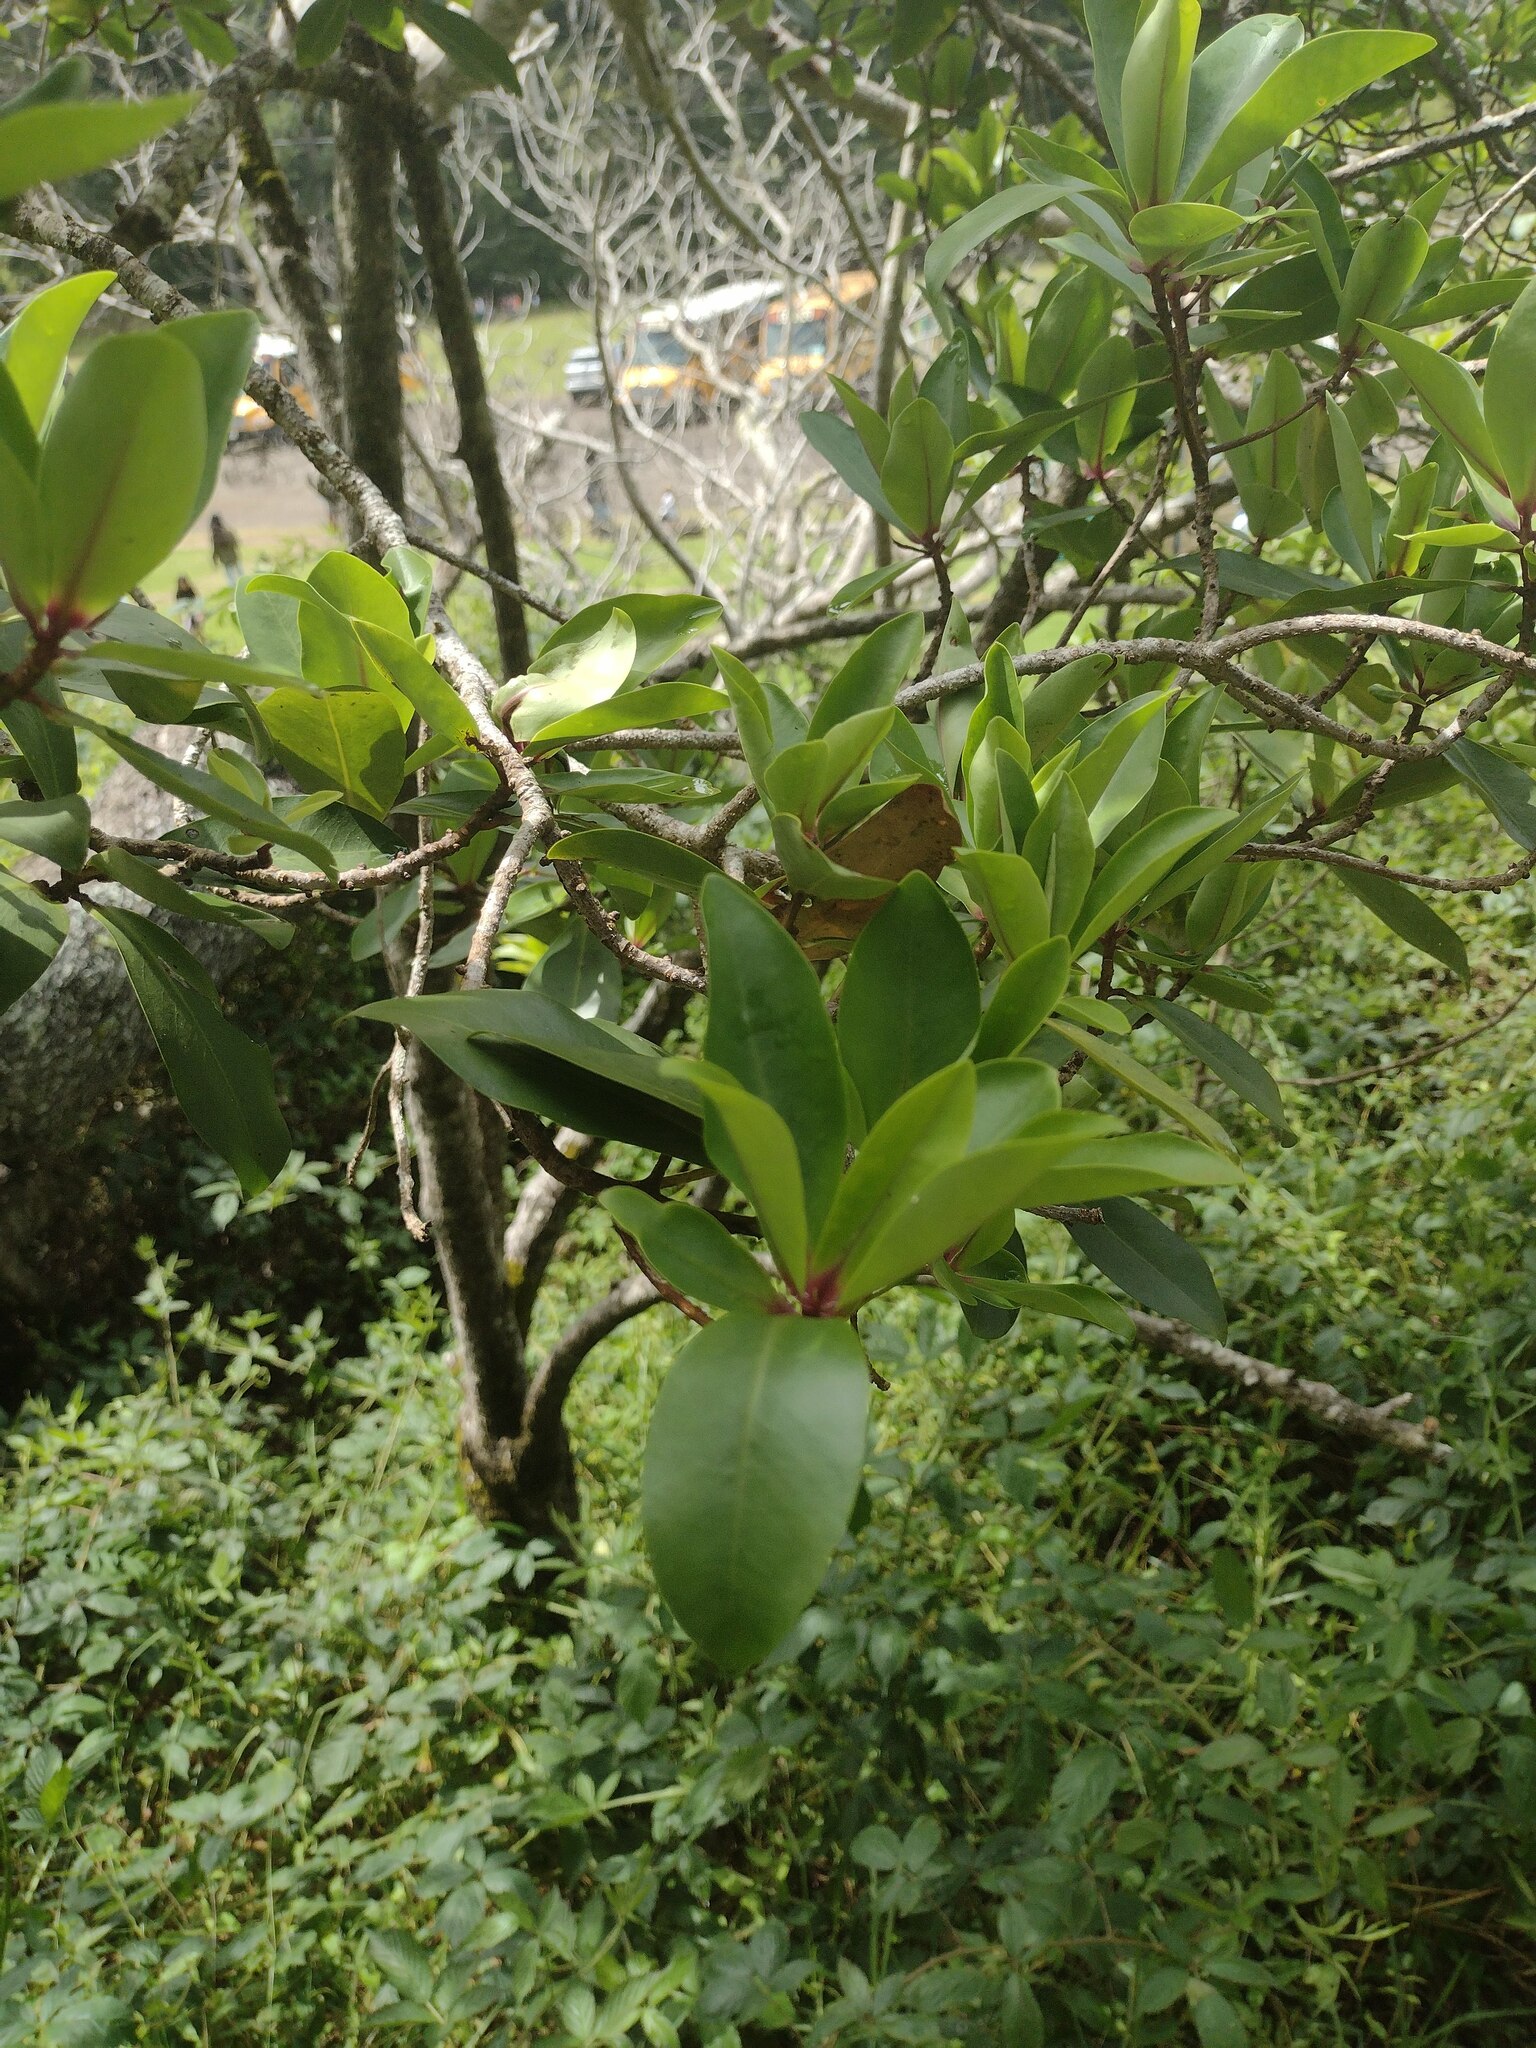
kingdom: Plantae
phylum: Tracheophyta
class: Magnoliopsida
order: Ericales
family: Primulaceae
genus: Myrsine
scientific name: Myrsine lessertiana
